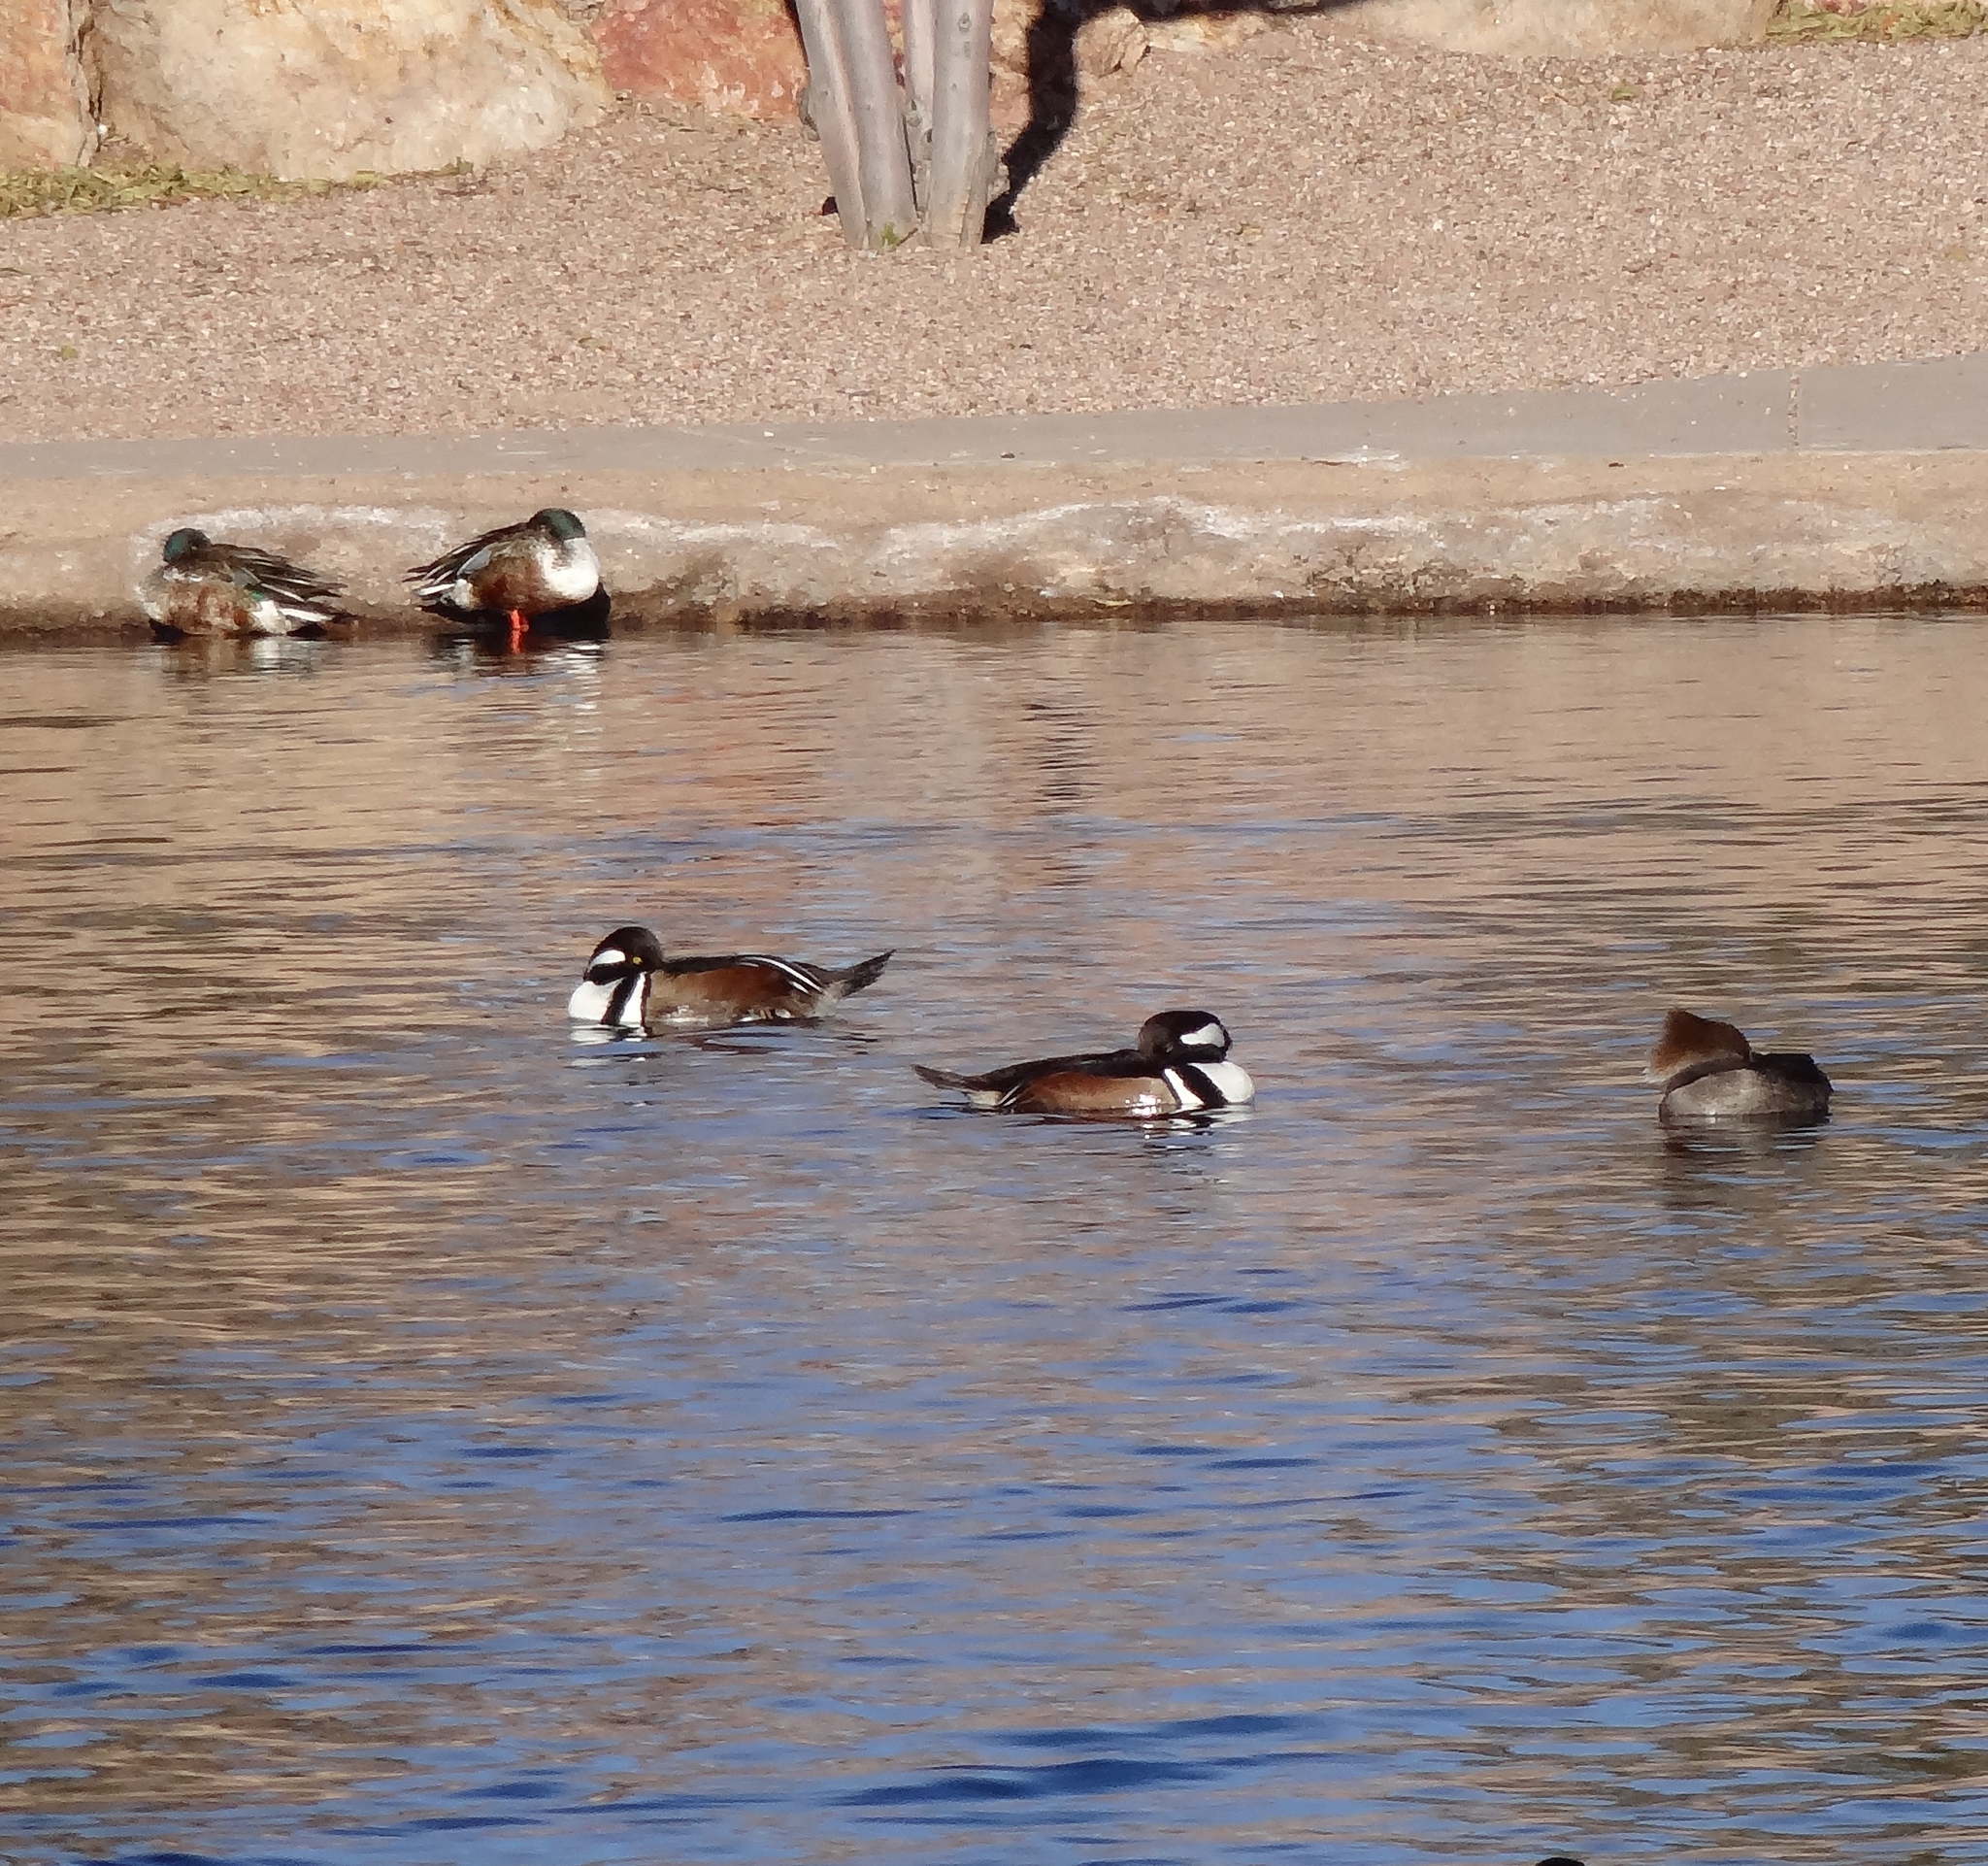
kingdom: Animalia
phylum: Chordata
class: Aves
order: Anseriformes
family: Anatidae
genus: Lophodytes
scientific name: Lophodytes cucullatus
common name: Hooded merganser
